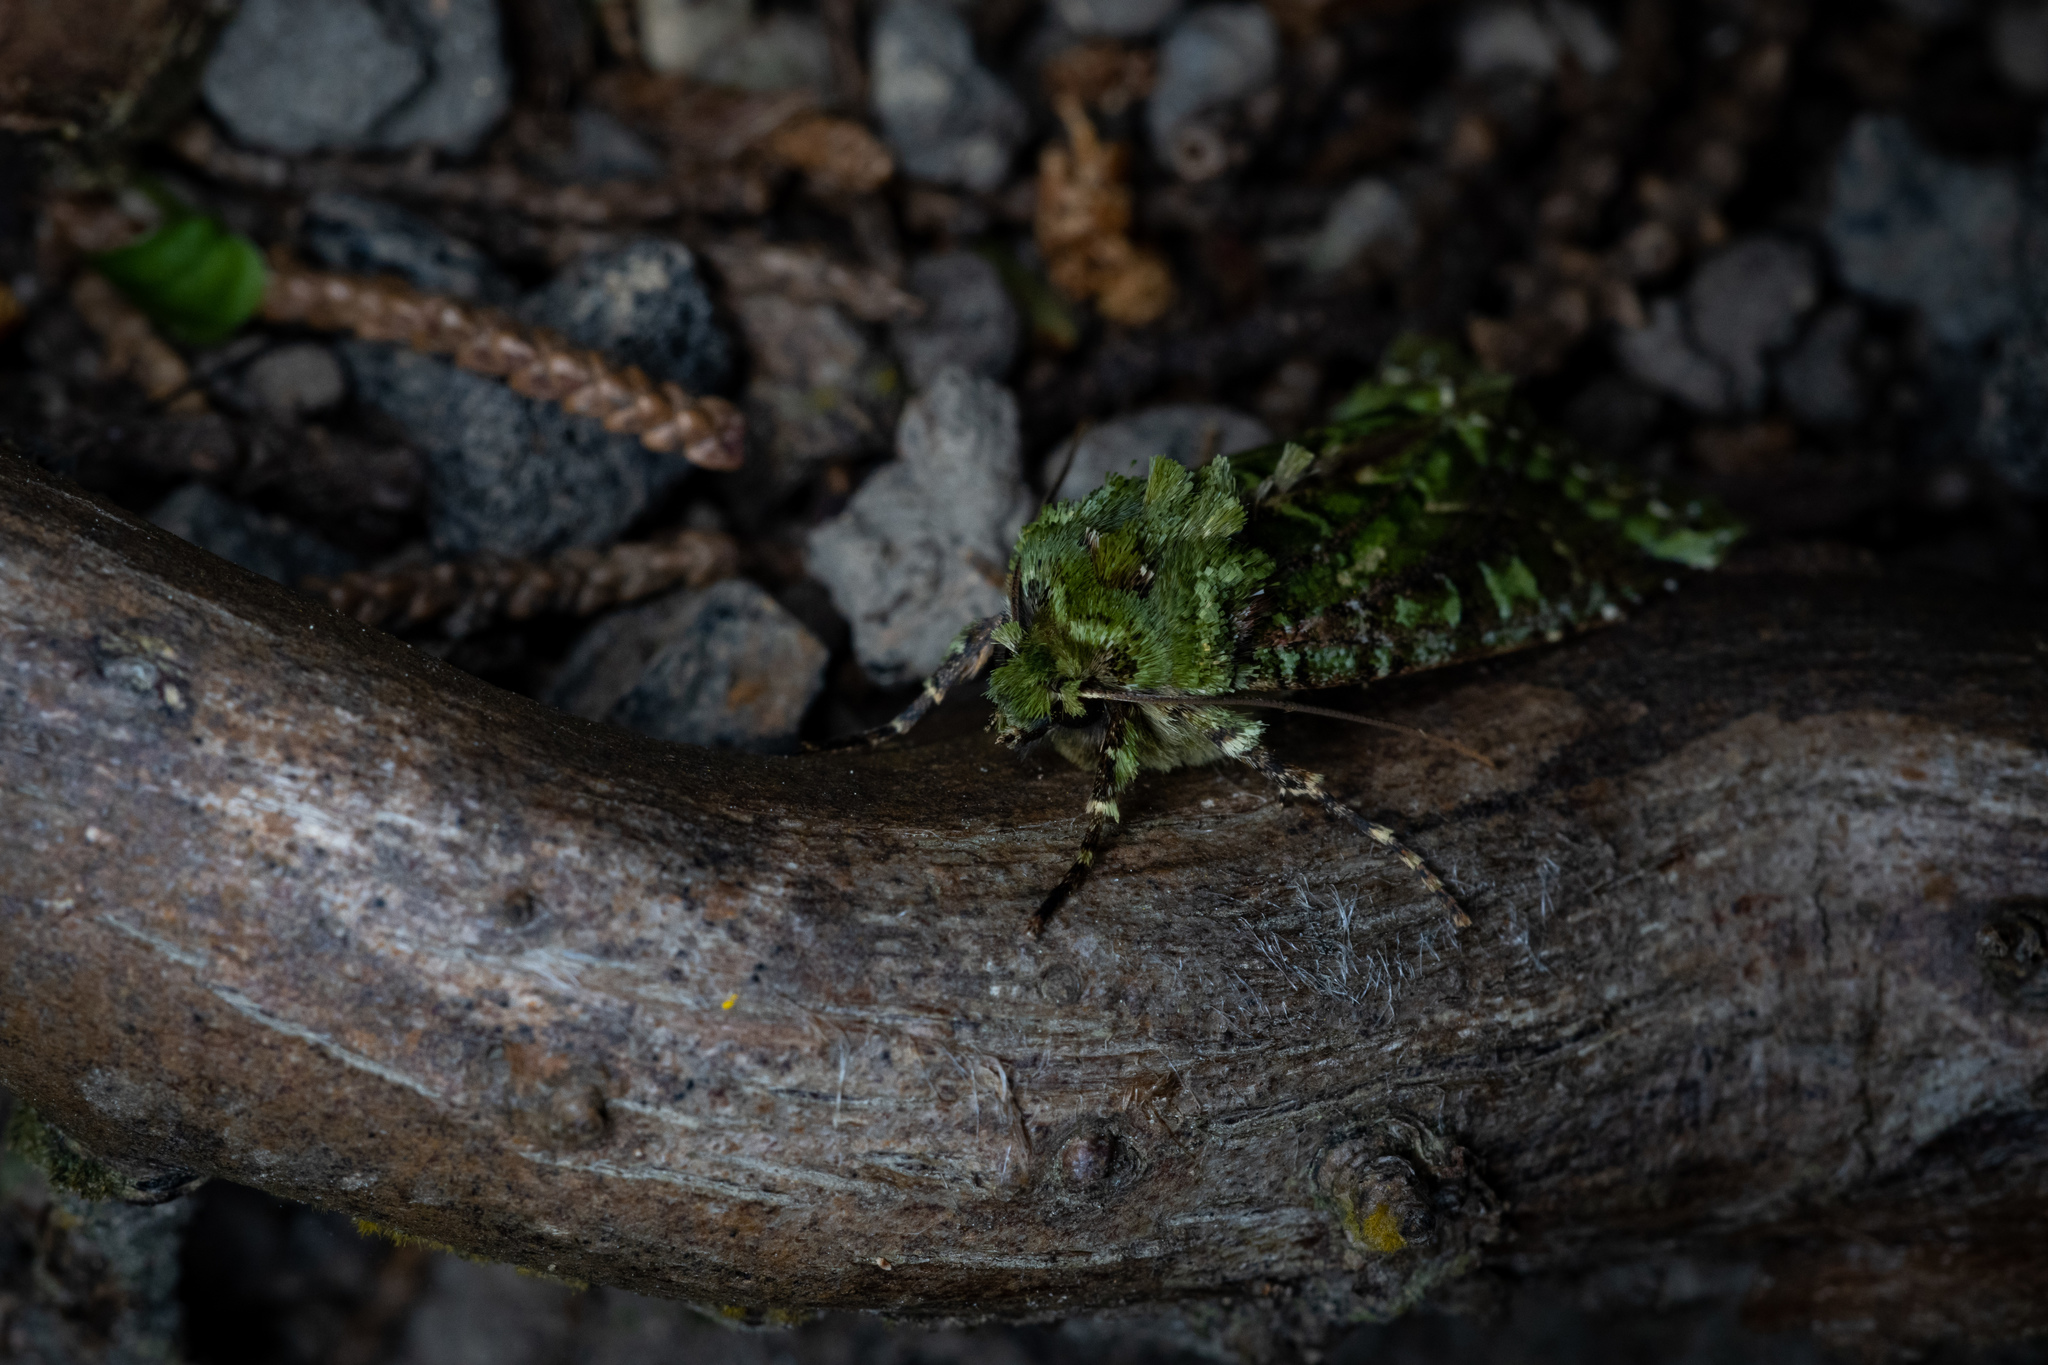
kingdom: Animalia
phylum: Arthropoda
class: Insecta
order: Lepidoptera
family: Noctuidae
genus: Feredayia
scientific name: Feredayia grammosa
